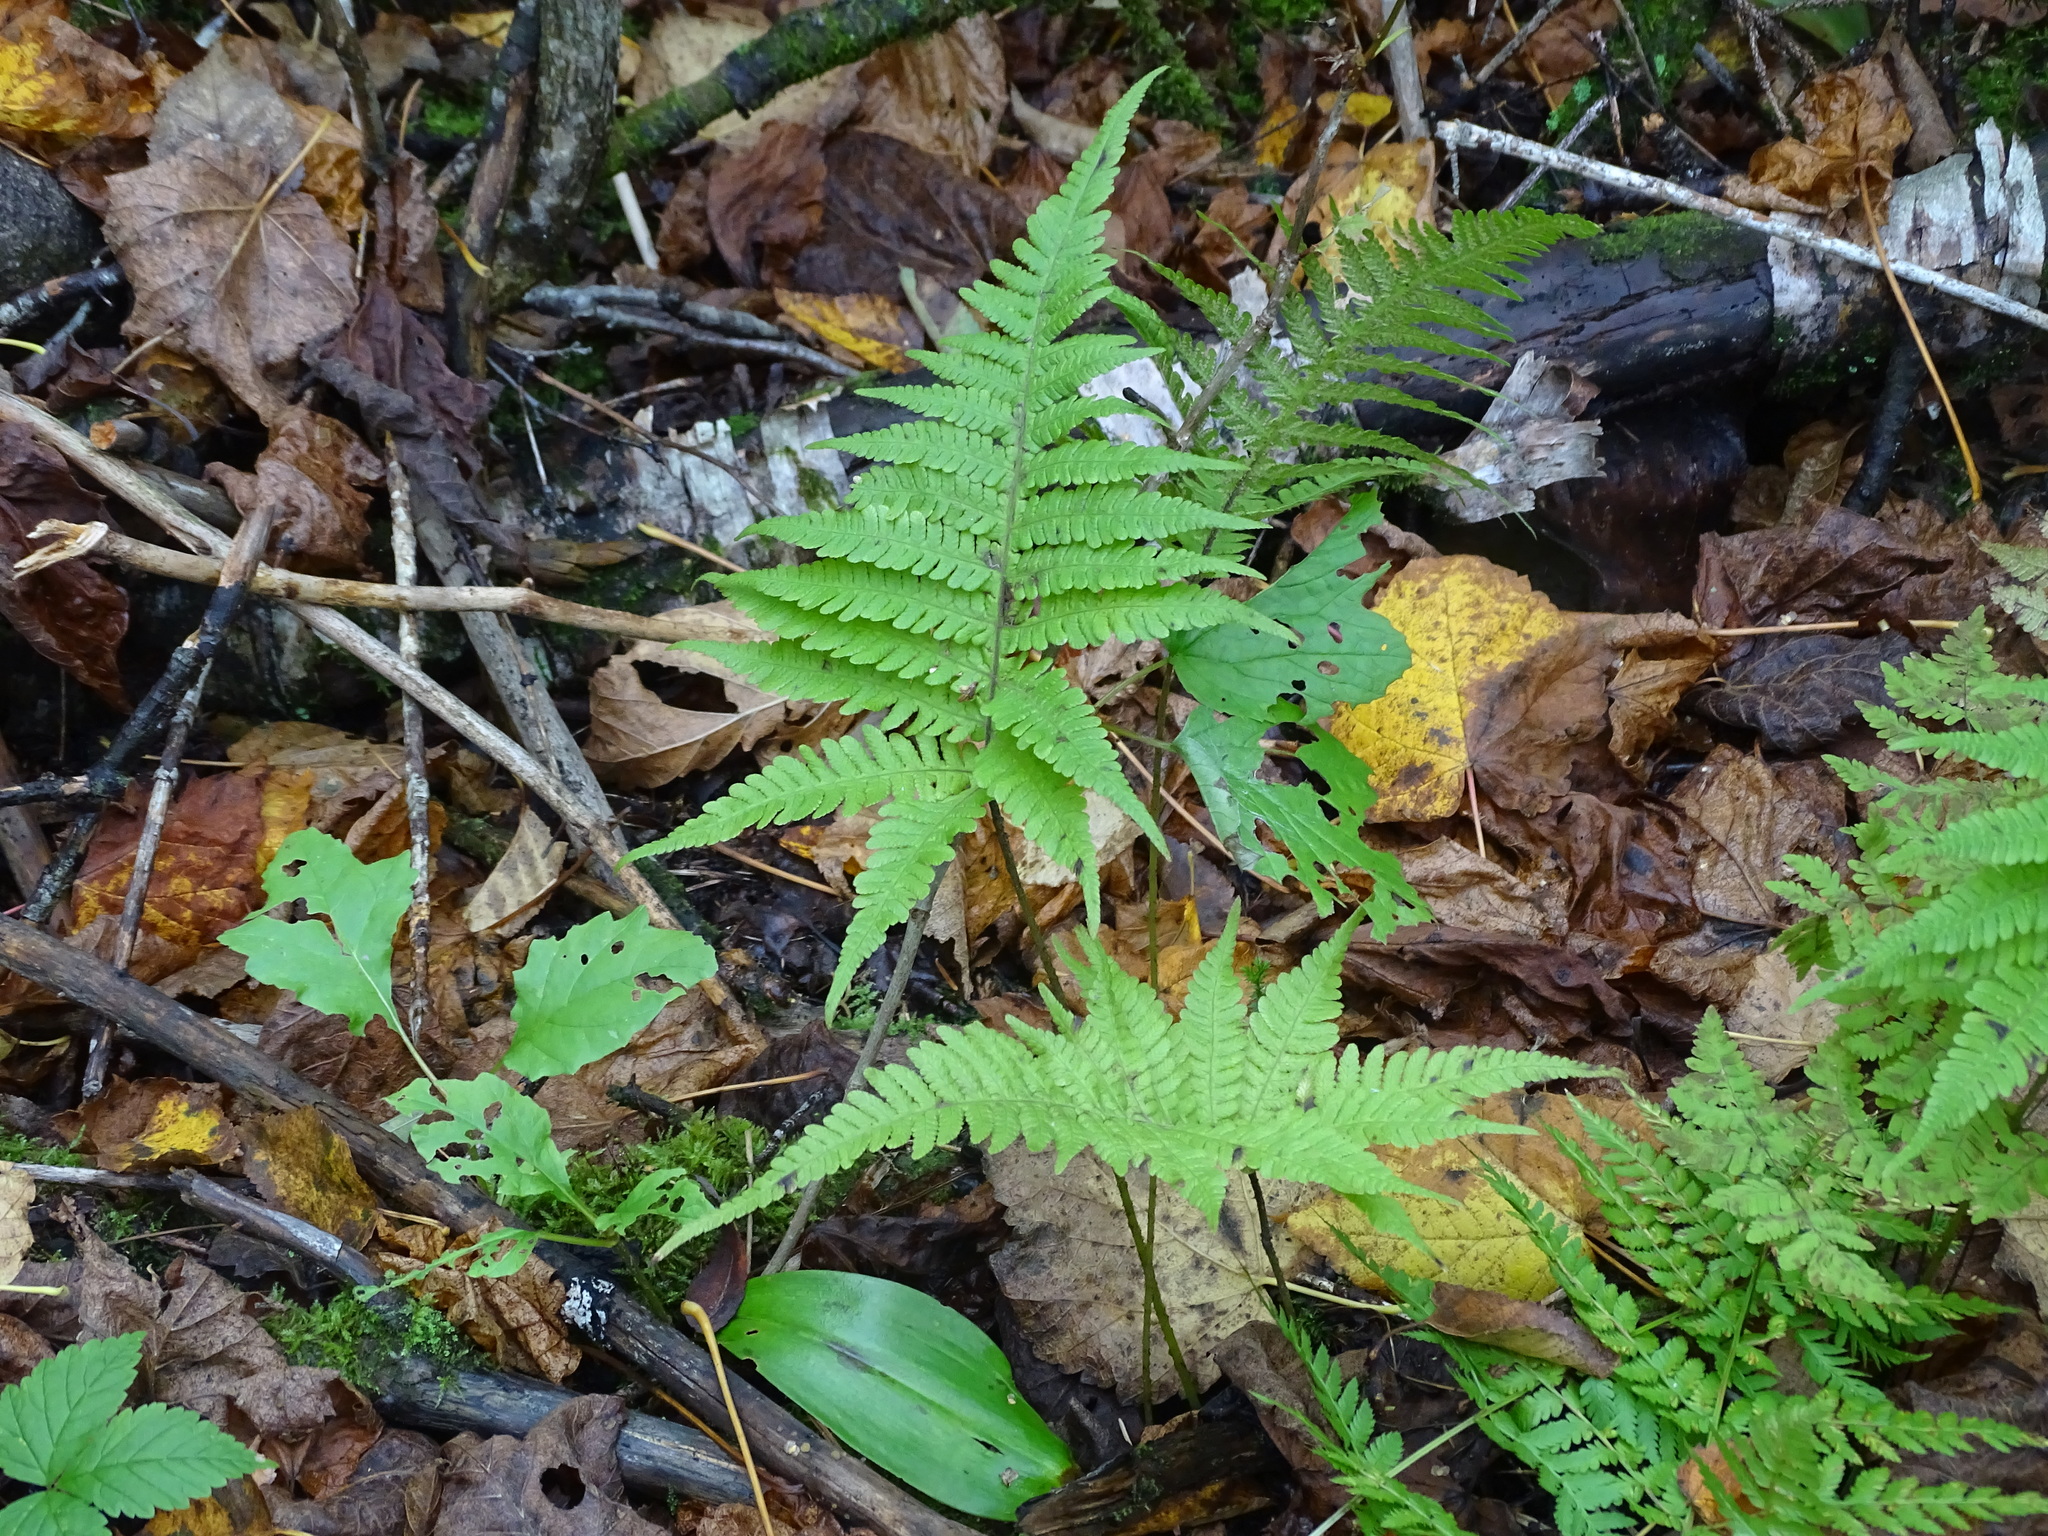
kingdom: Plantae
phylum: Tracheophyta
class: Polypodiopsida
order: Polypodiales
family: Thelypteridaceae
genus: Phegopteris
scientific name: Phegopteris connectilis
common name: Beech fern
